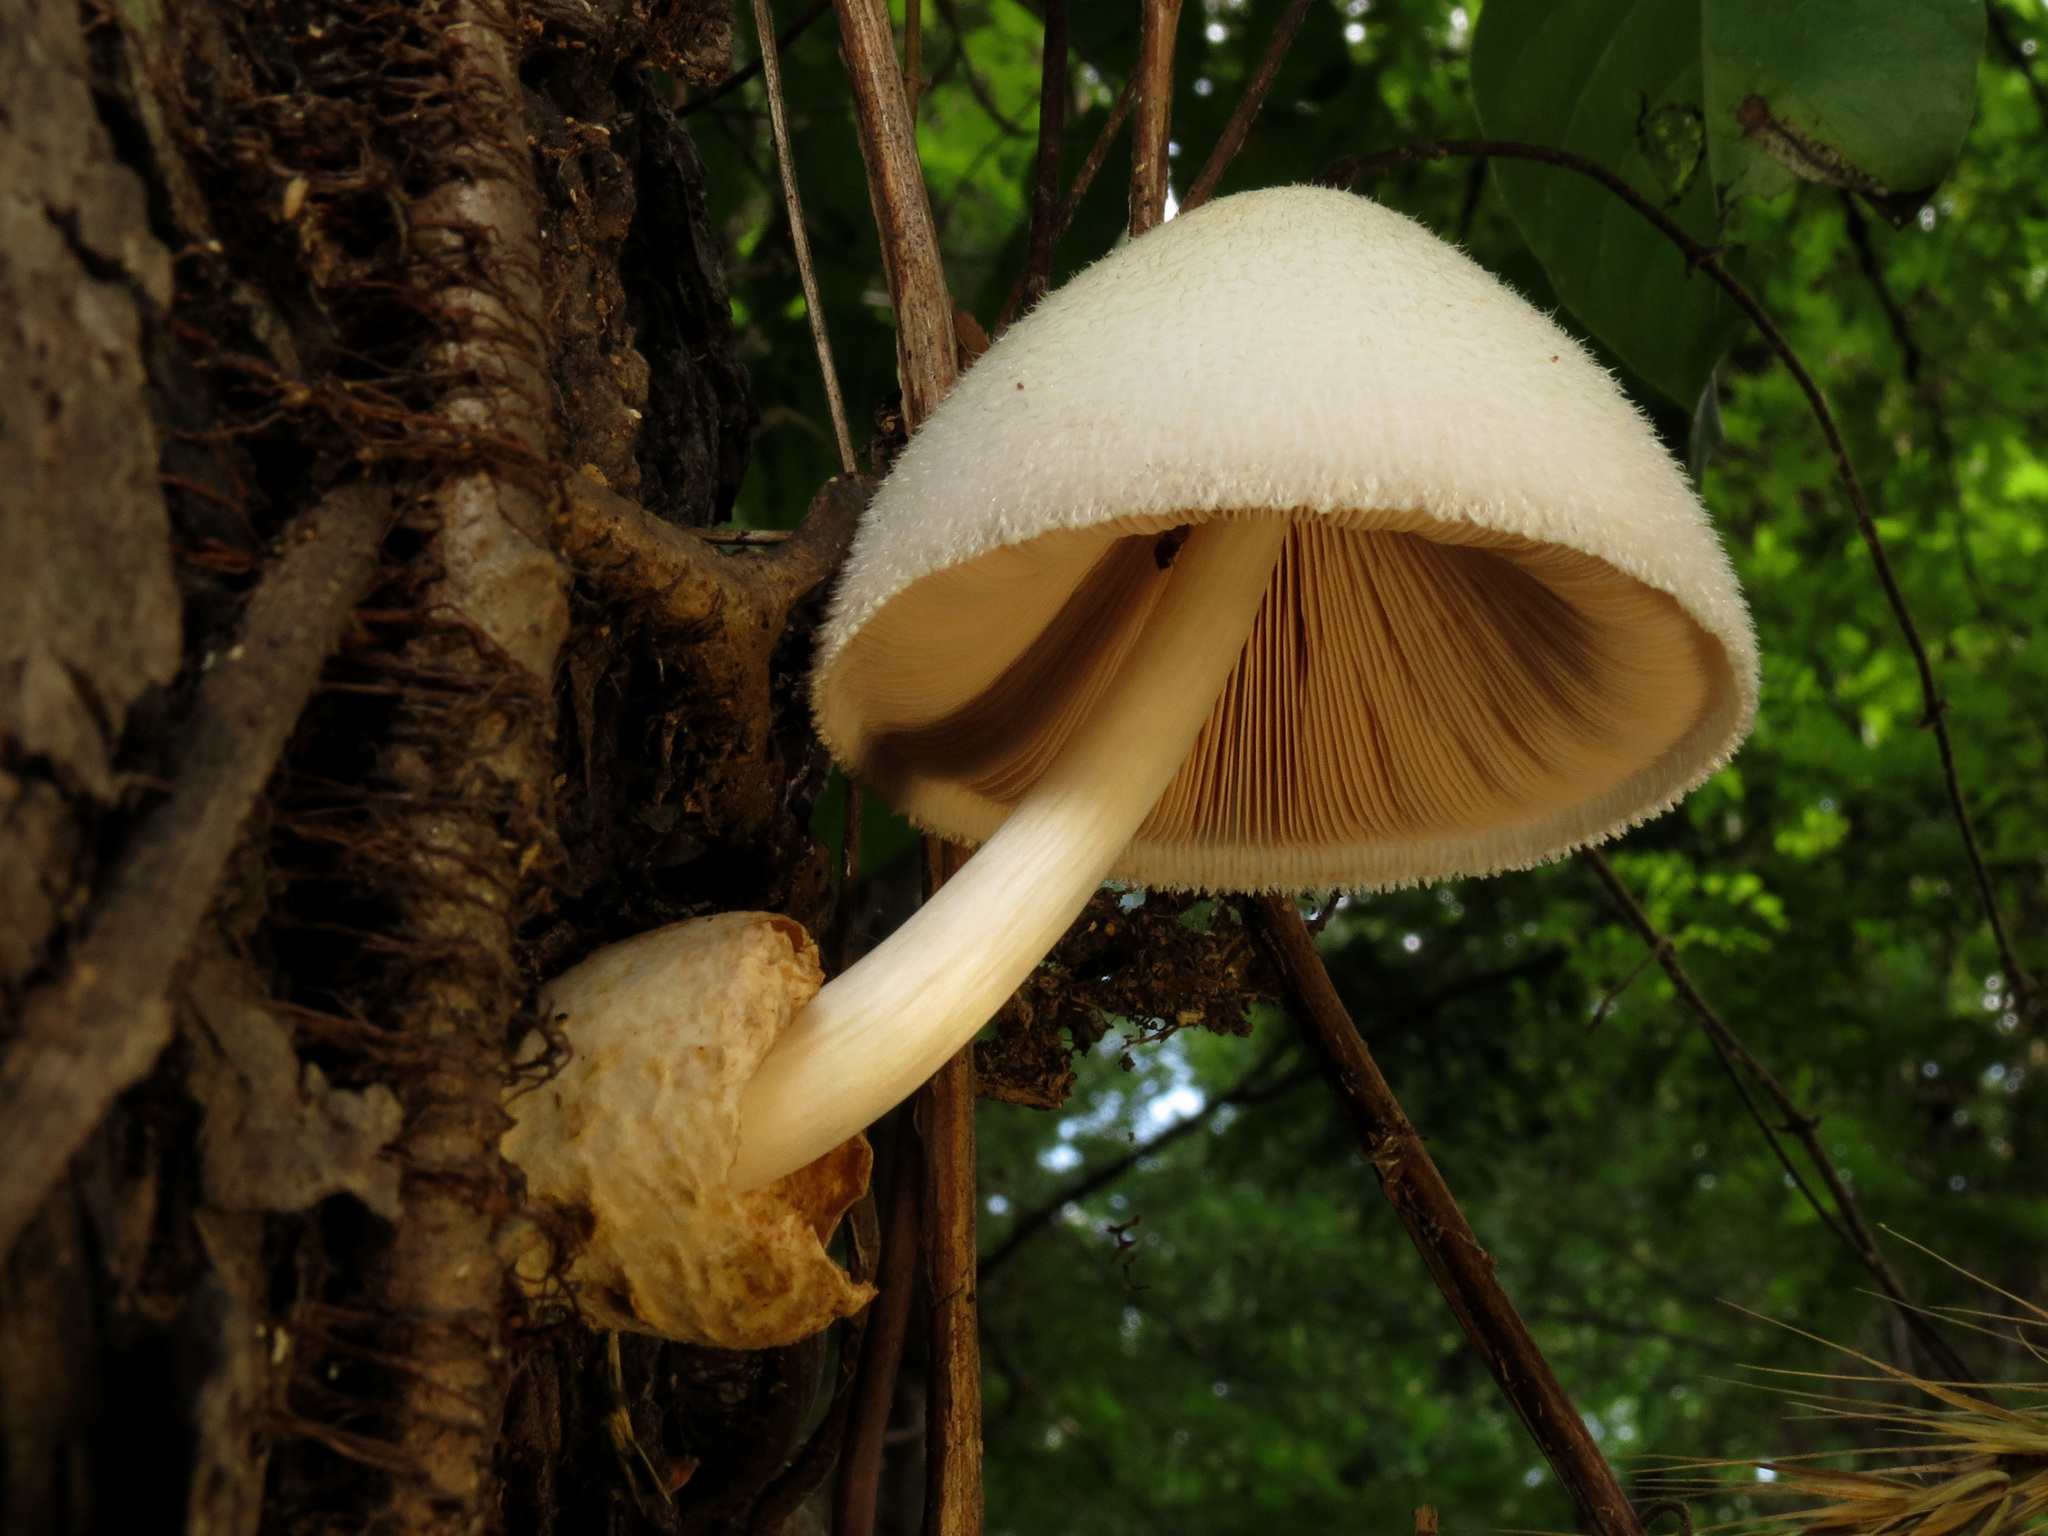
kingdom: Fungi
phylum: Basidiomycota
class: Agaricomycetes
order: Agaricales
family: Pluteaceae
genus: Volvariella
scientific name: Volvariella bombycina
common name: Silky rosegill
